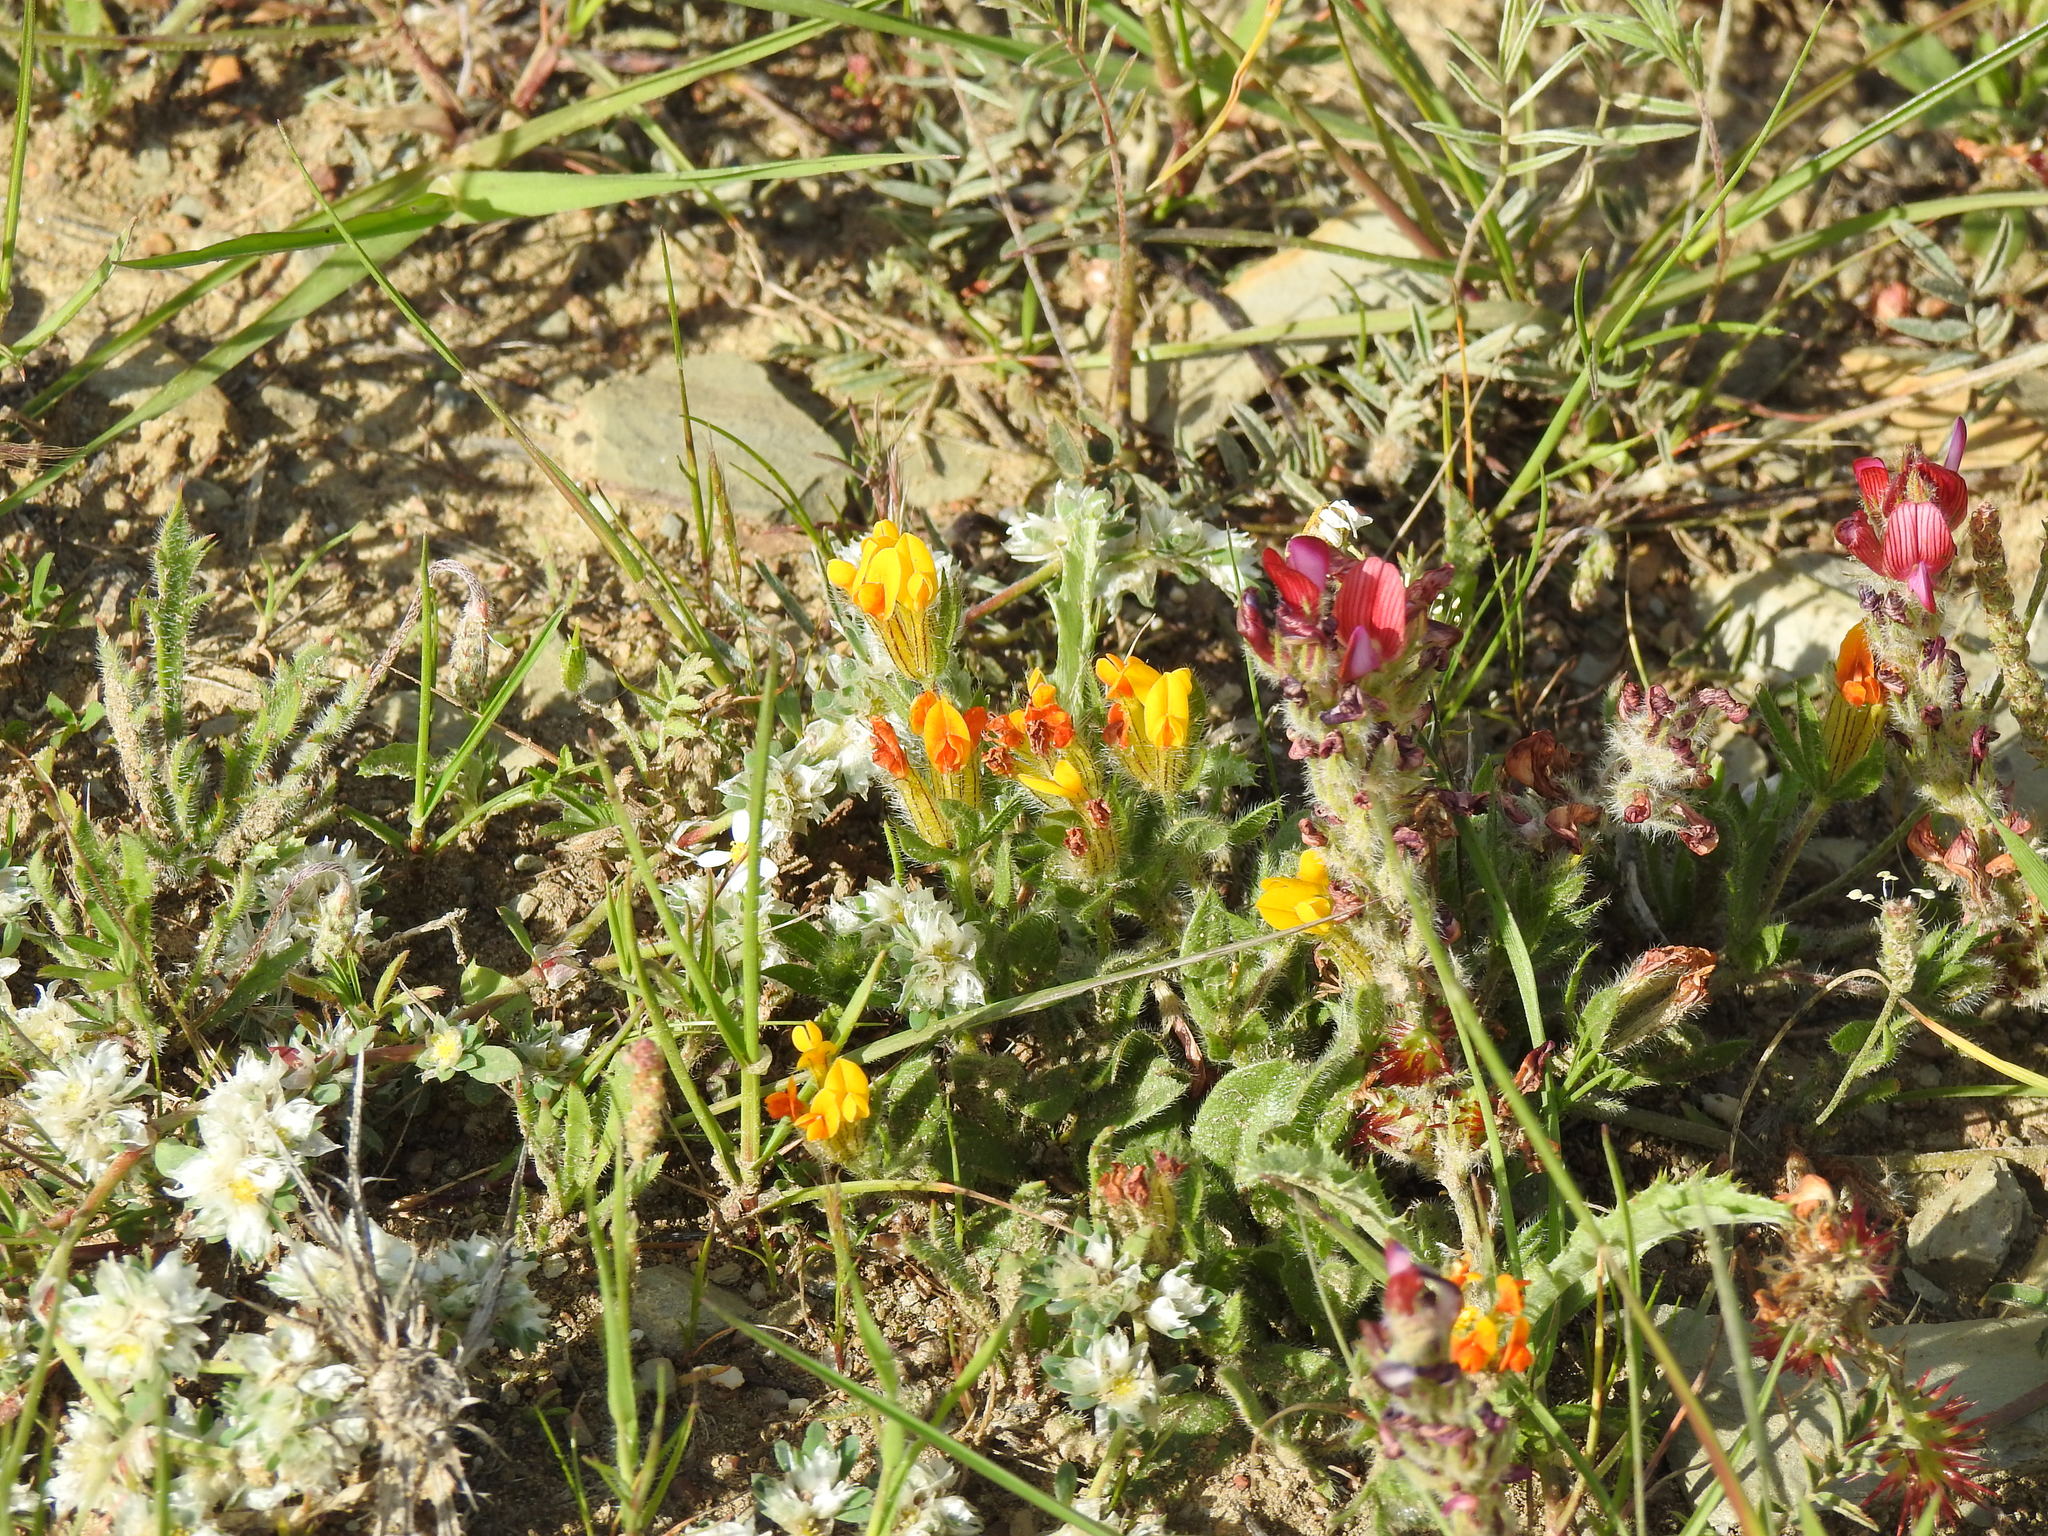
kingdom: Plantae
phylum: Tracheophyta
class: Magnoliopsida
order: Fabales
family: Fabaceae
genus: Anthyllis
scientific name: Anthyllis lotoides
